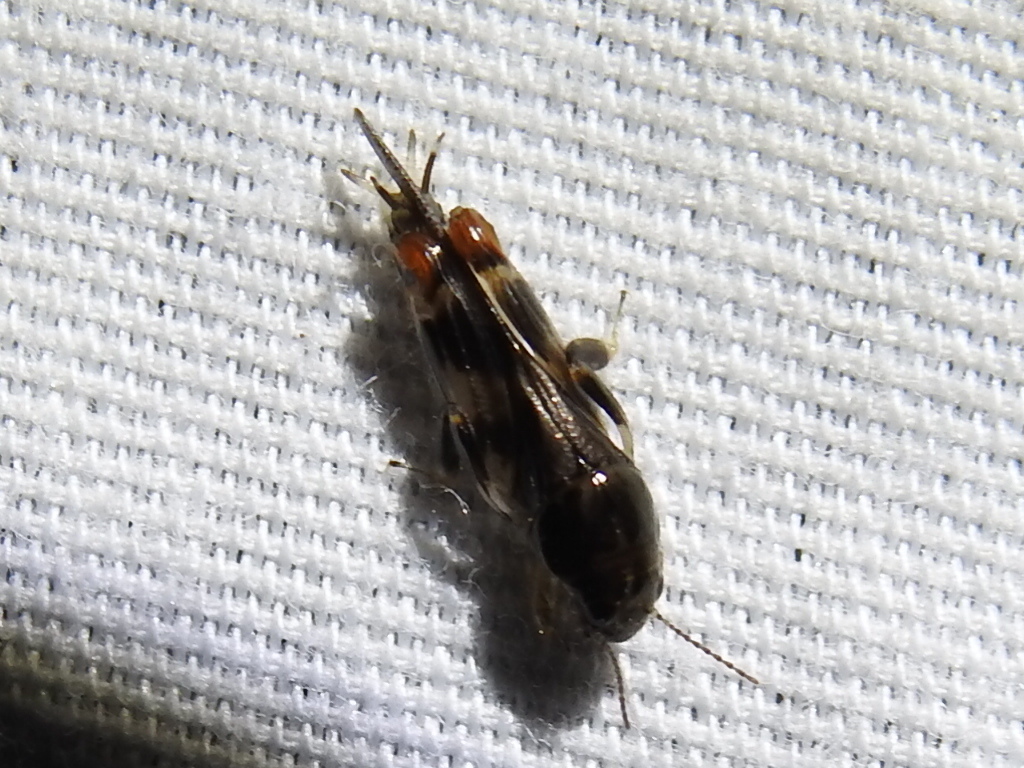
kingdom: Animalia
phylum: Arthropoda
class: Insecta
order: Orthoptera
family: Tridactylidae
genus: Neotridactylus
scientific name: Neotridactylus apicialis
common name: Larger pygmy locust
